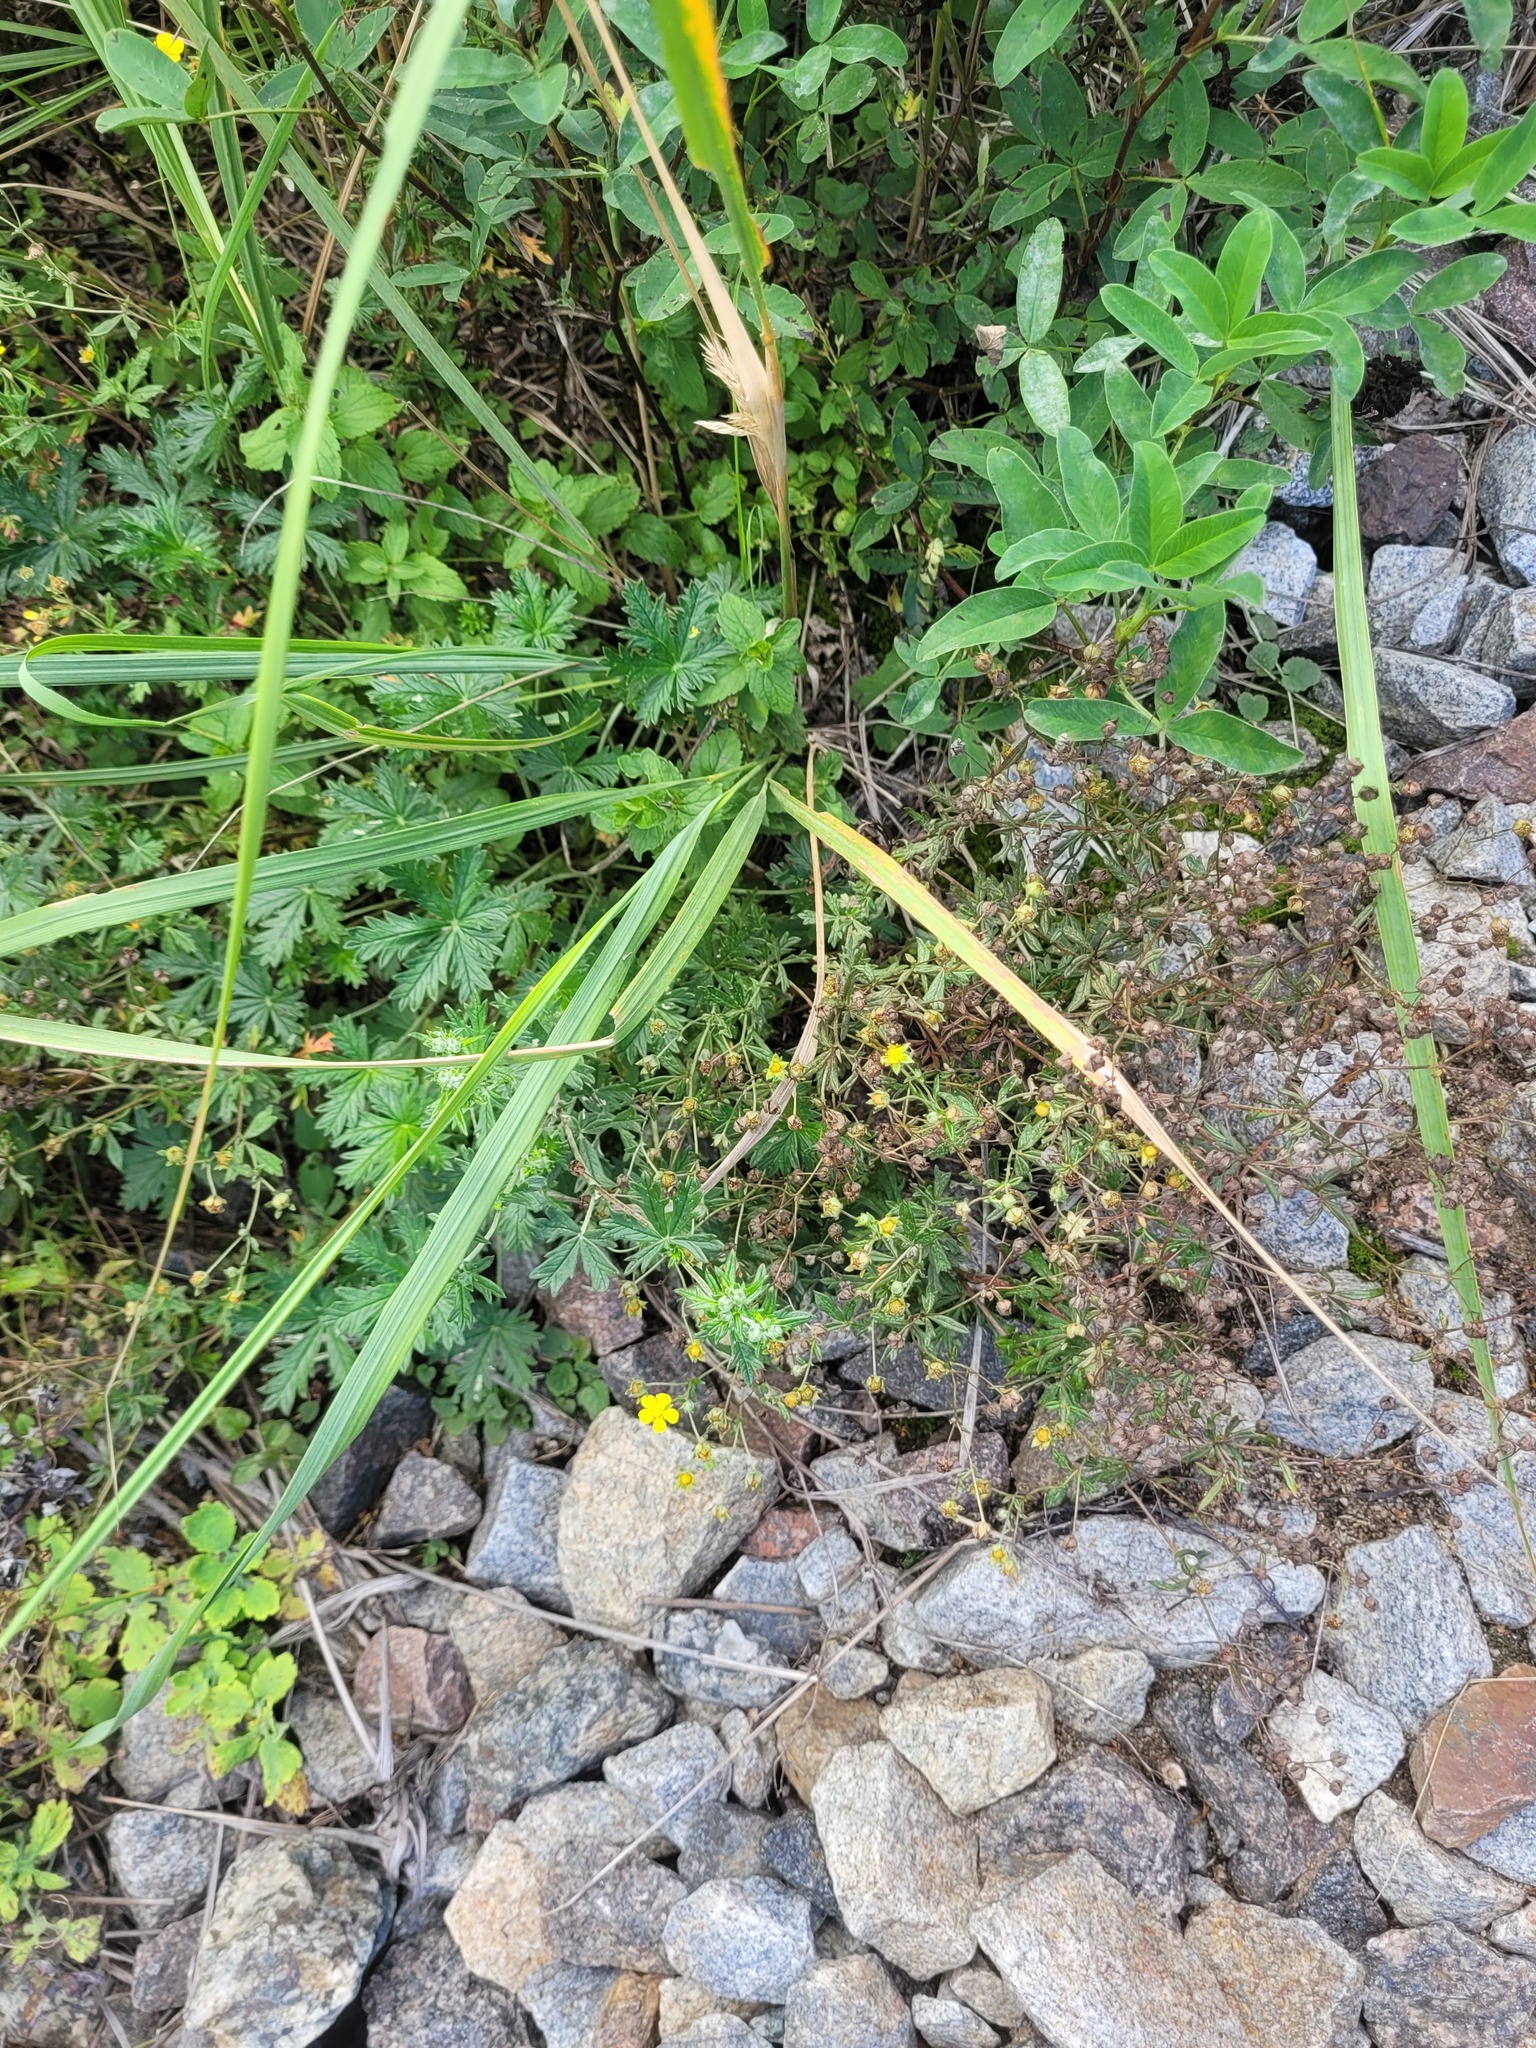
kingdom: Plantae
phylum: Tracheophyta
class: Magnoliopsida
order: Rosales
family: Rosaceae
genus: Potentilla
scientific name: Potentilla argentea
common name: Hoary cinquefoil
